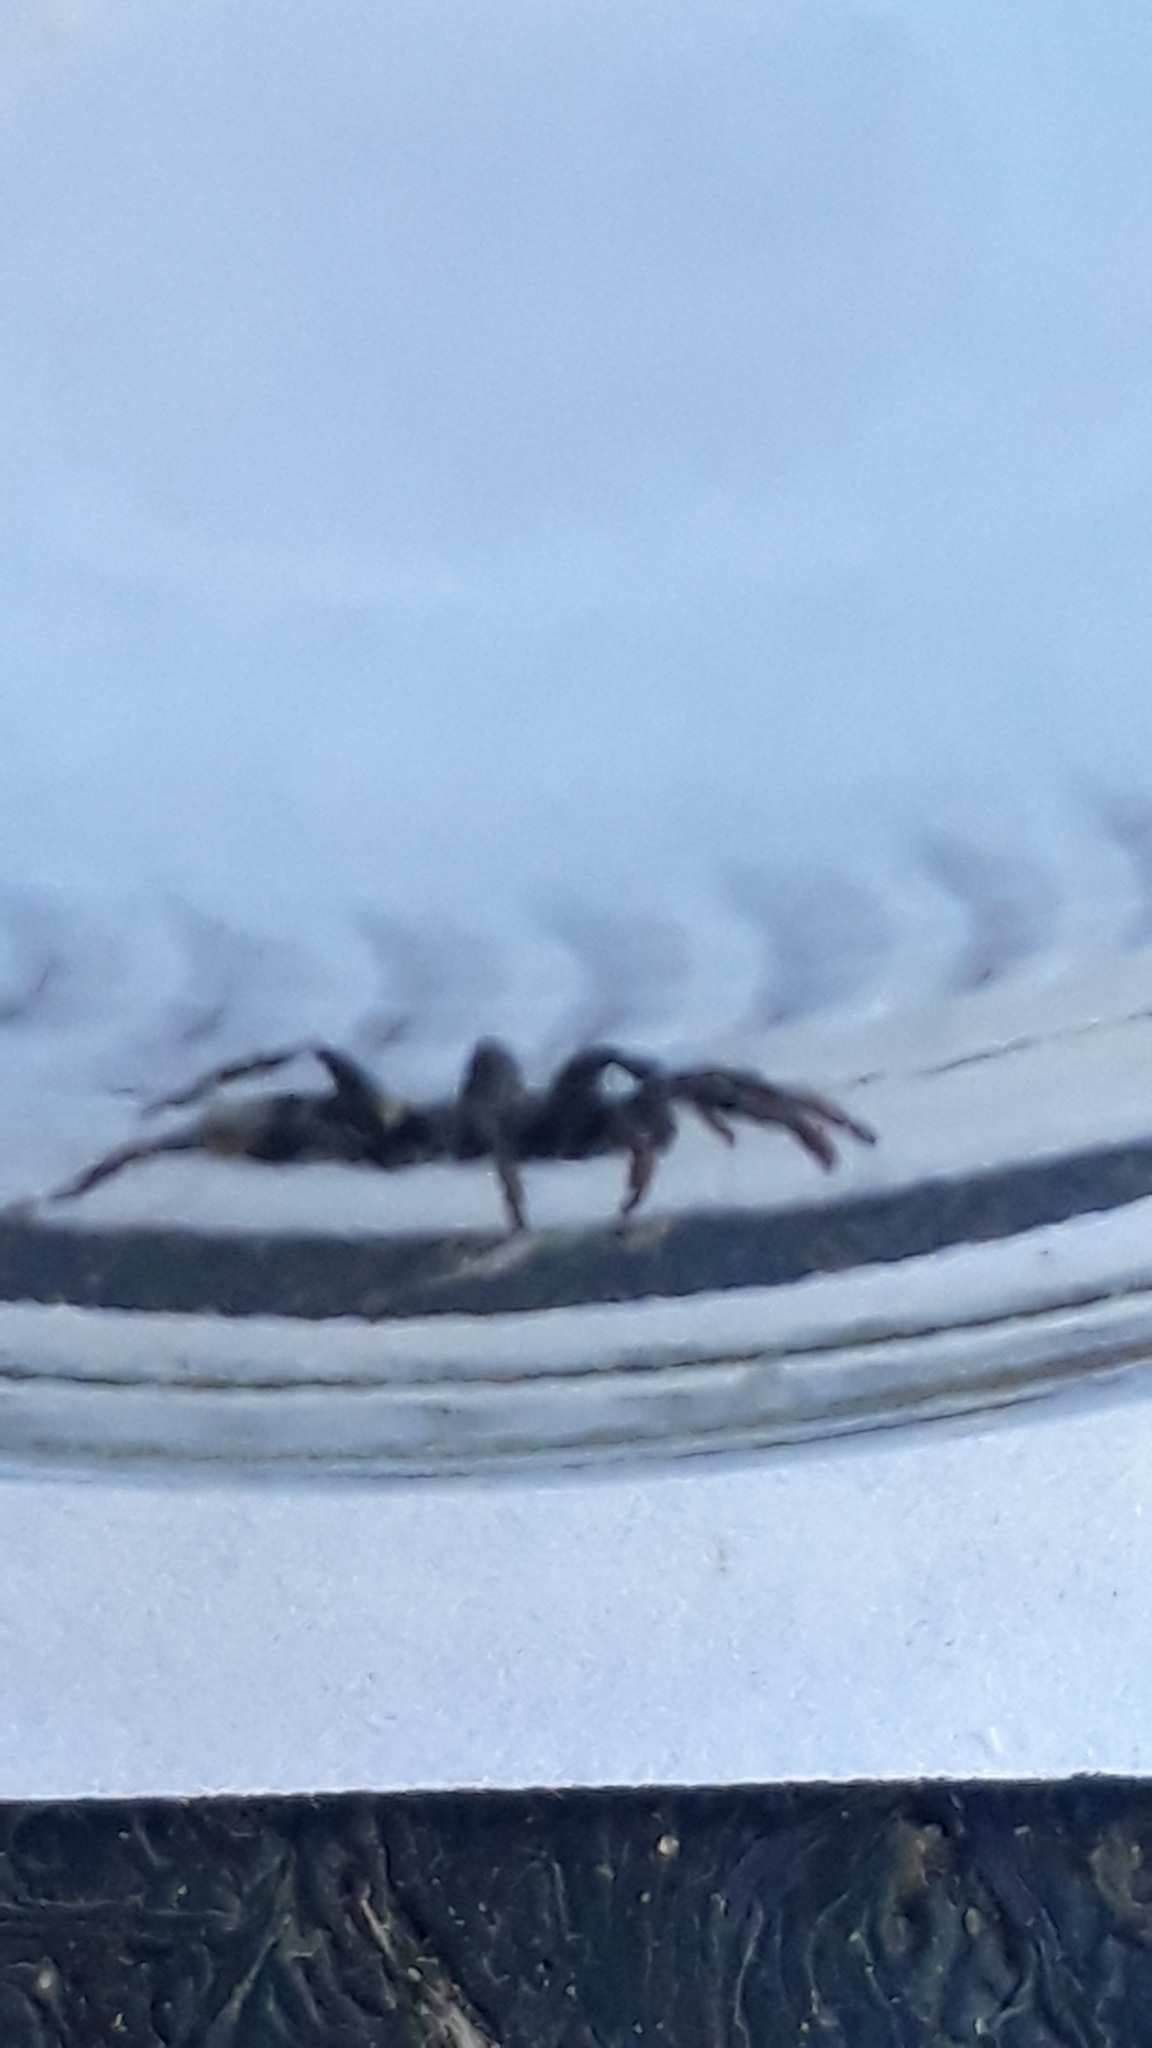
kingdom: Animalia
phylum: Arthropoda
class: Arachnida
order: Araneae
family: Gnaphosidae
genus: Latonigena
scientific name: Latonigena auricomis
